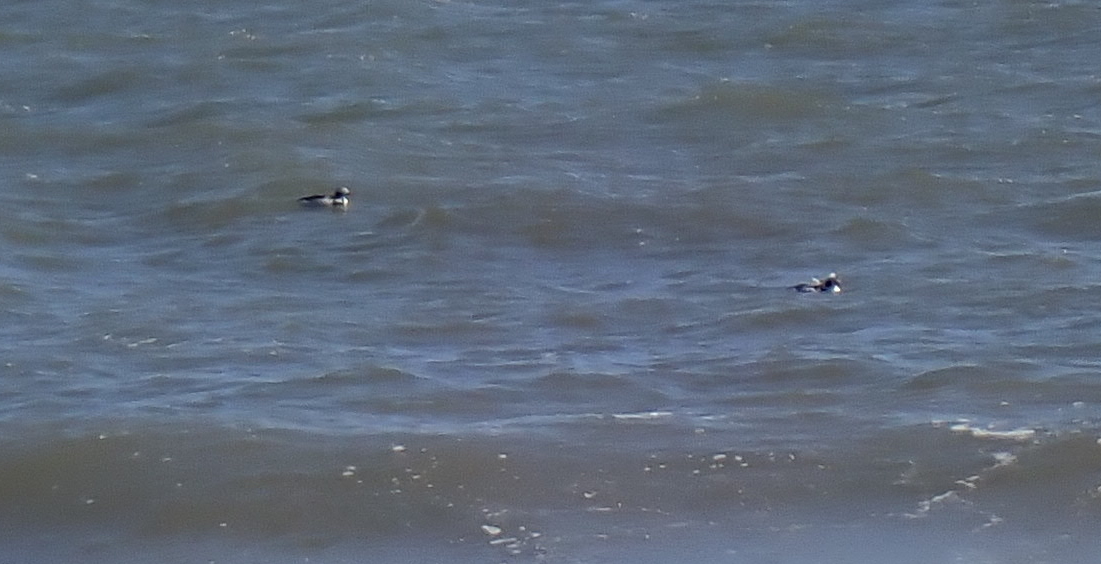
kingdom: Animalia
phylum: Chordata
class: Aves
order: Anseriformes
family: Anatidae
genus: Clangula
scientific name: Clangula hyemalis
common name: Long-tailed duck
